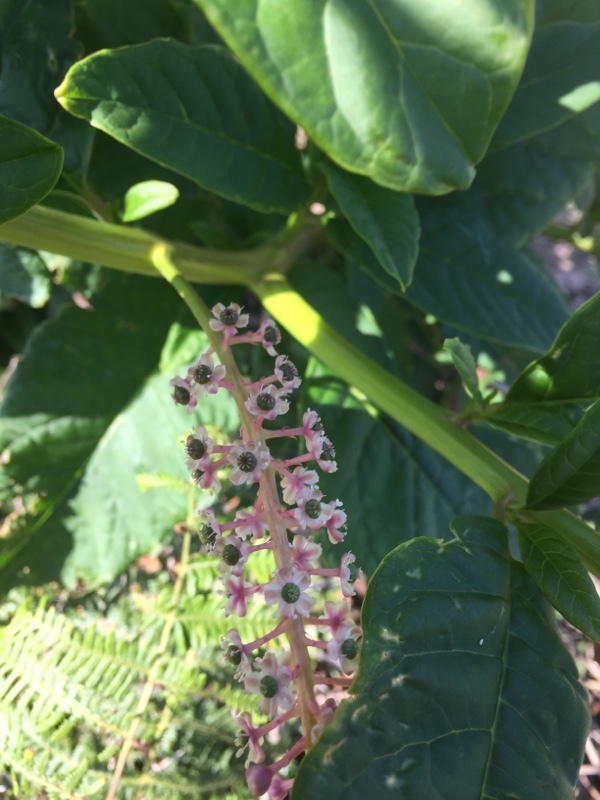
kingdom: Plantae
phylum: Tracheophyta
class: Magnoliopsida
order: Caryophyllales
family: Phytolaccaceae
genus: Phytolacca
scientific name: Phytolacca americana
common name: American pokeweed
